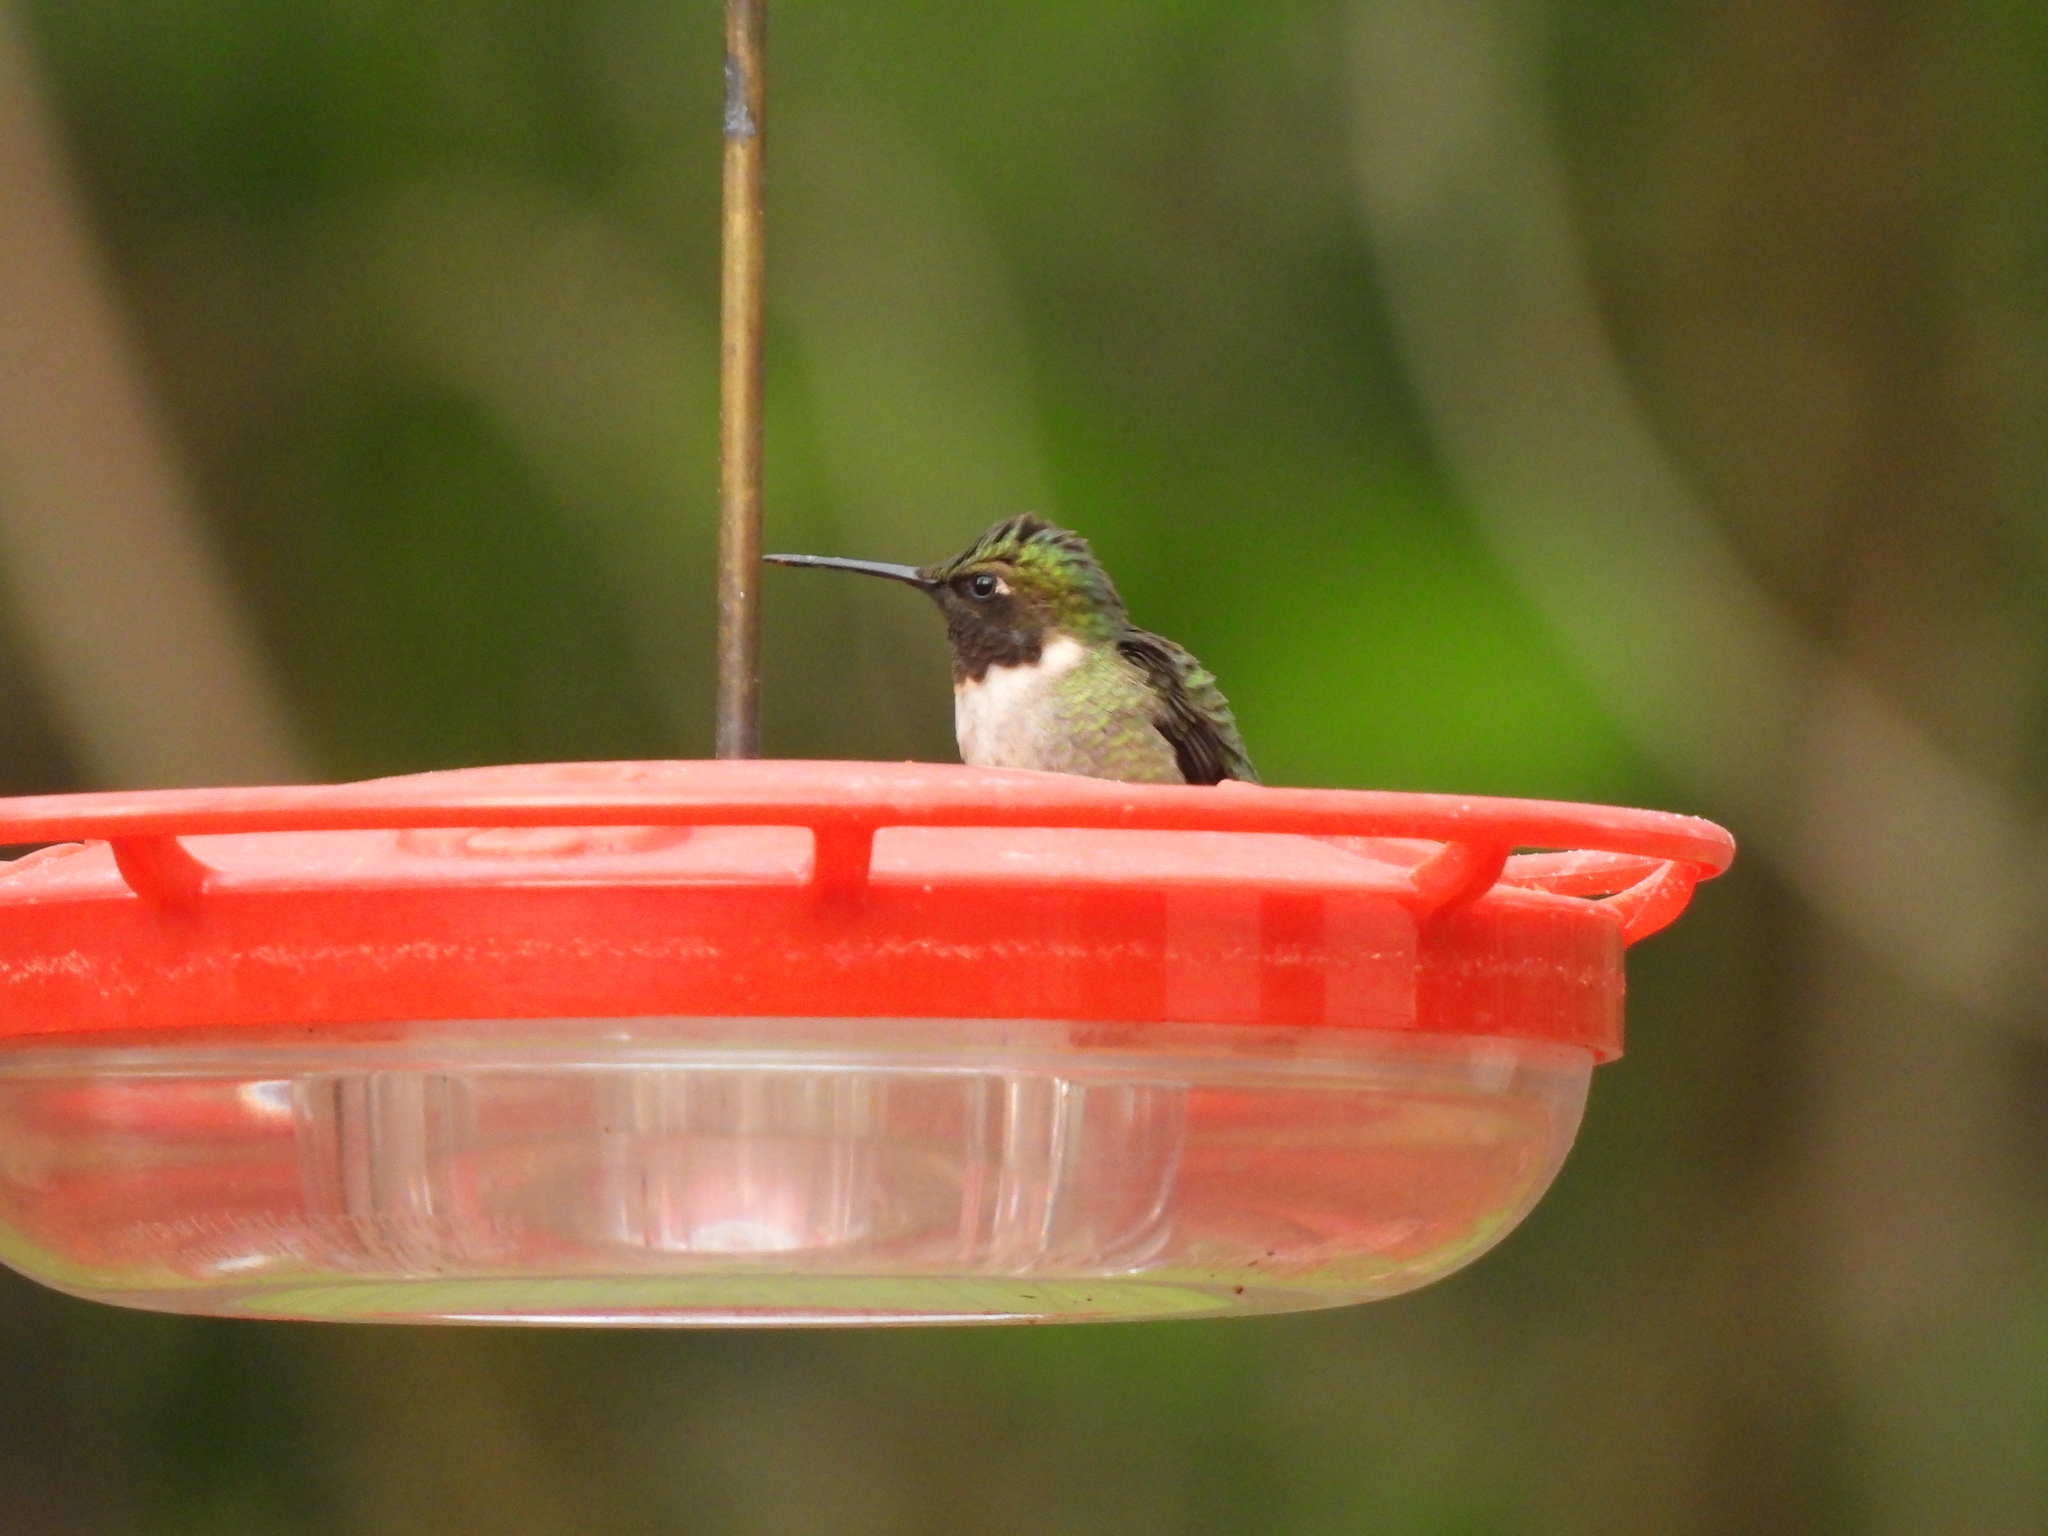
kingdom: Animalia
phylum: Chordata
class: Aves
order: Apodiformes
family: Trochilidae
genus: Archilochus
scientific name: Archilochus colubris
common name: Ruby-throated hummingbird
